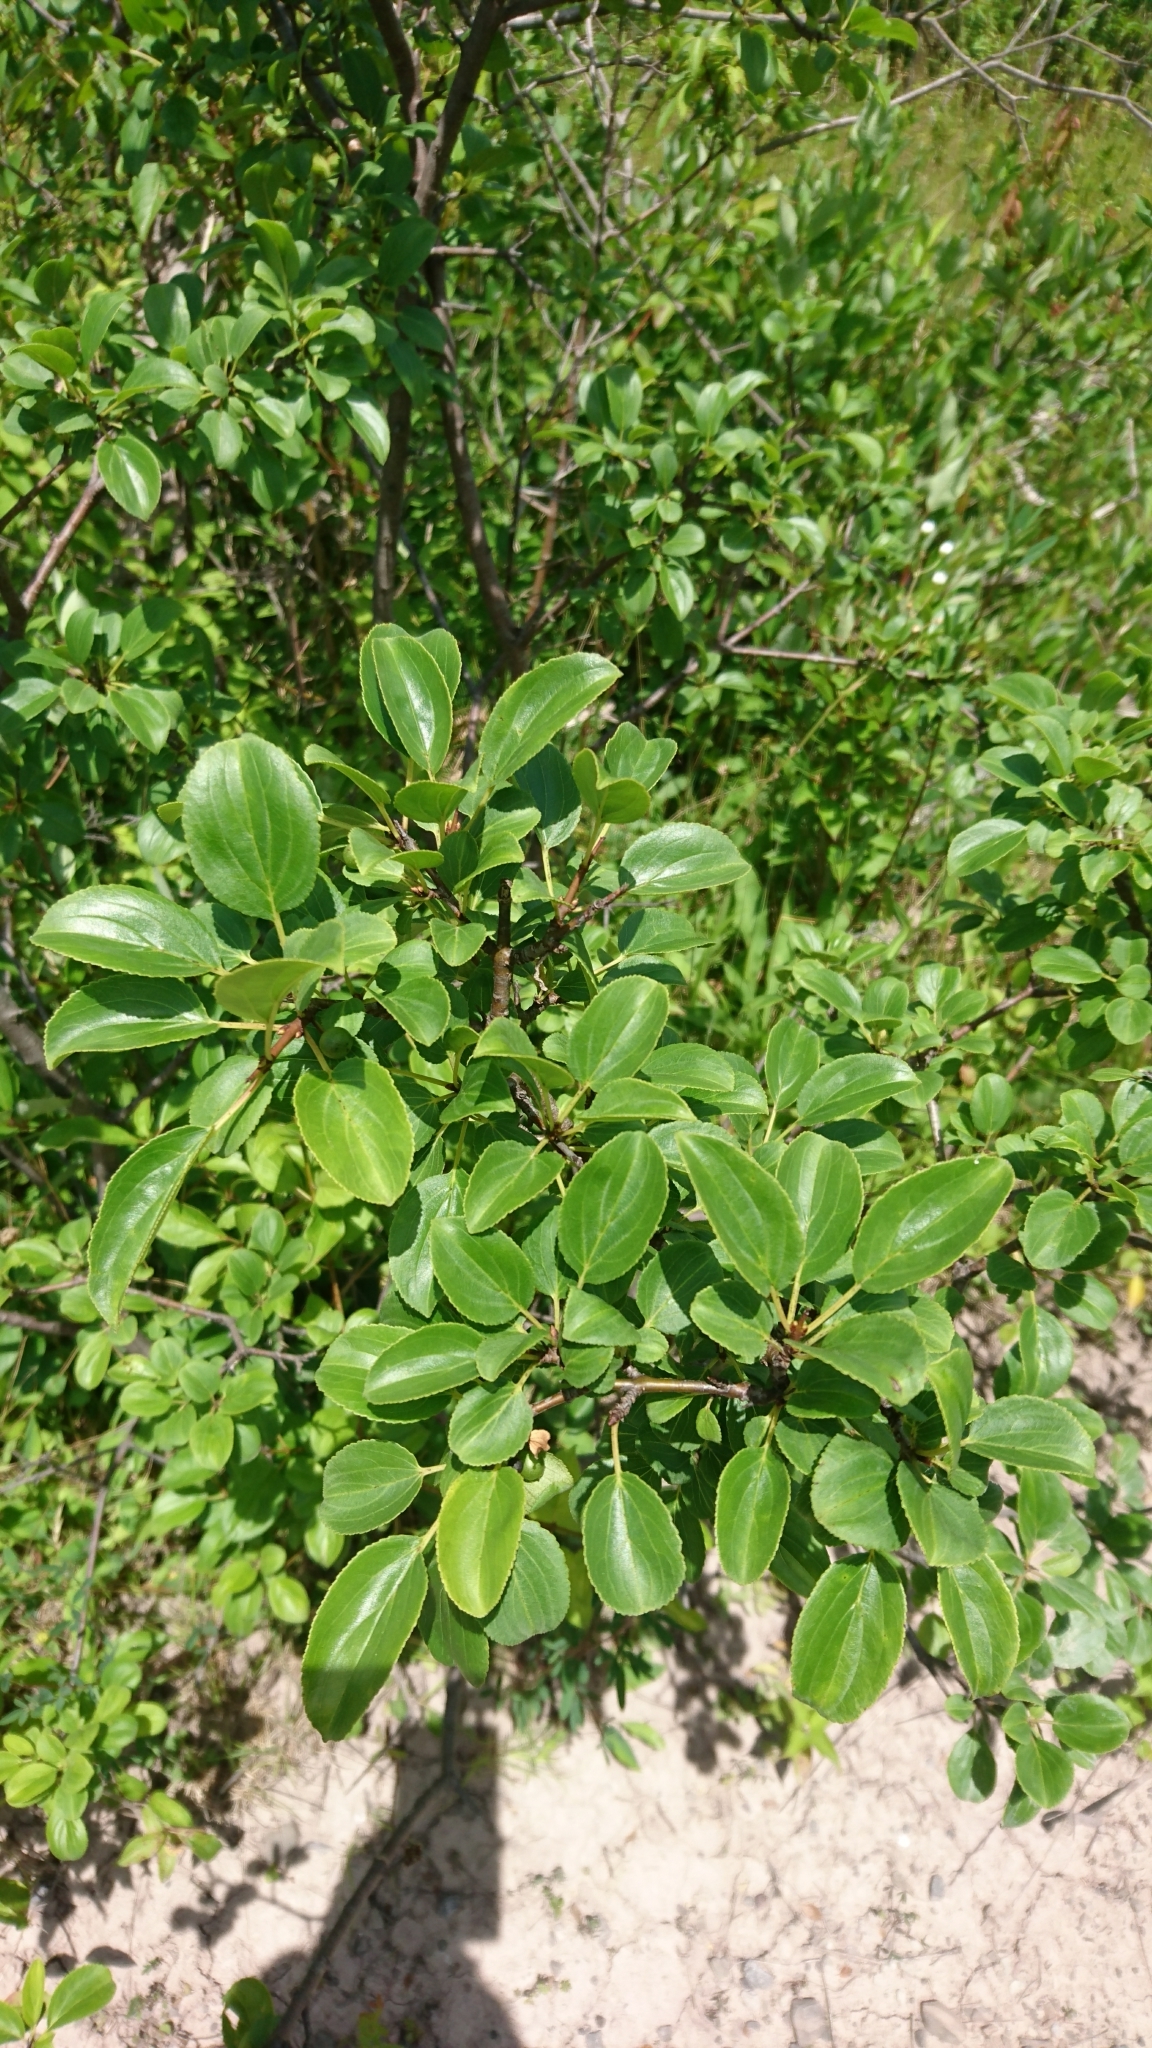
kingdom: Plantae
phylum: Tracheophyta
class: Magnoliopsida
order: Rosales
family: Rhamnaceae
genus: Rhamnus
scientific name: Rhamnus cathartica
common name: Common buckthorn
